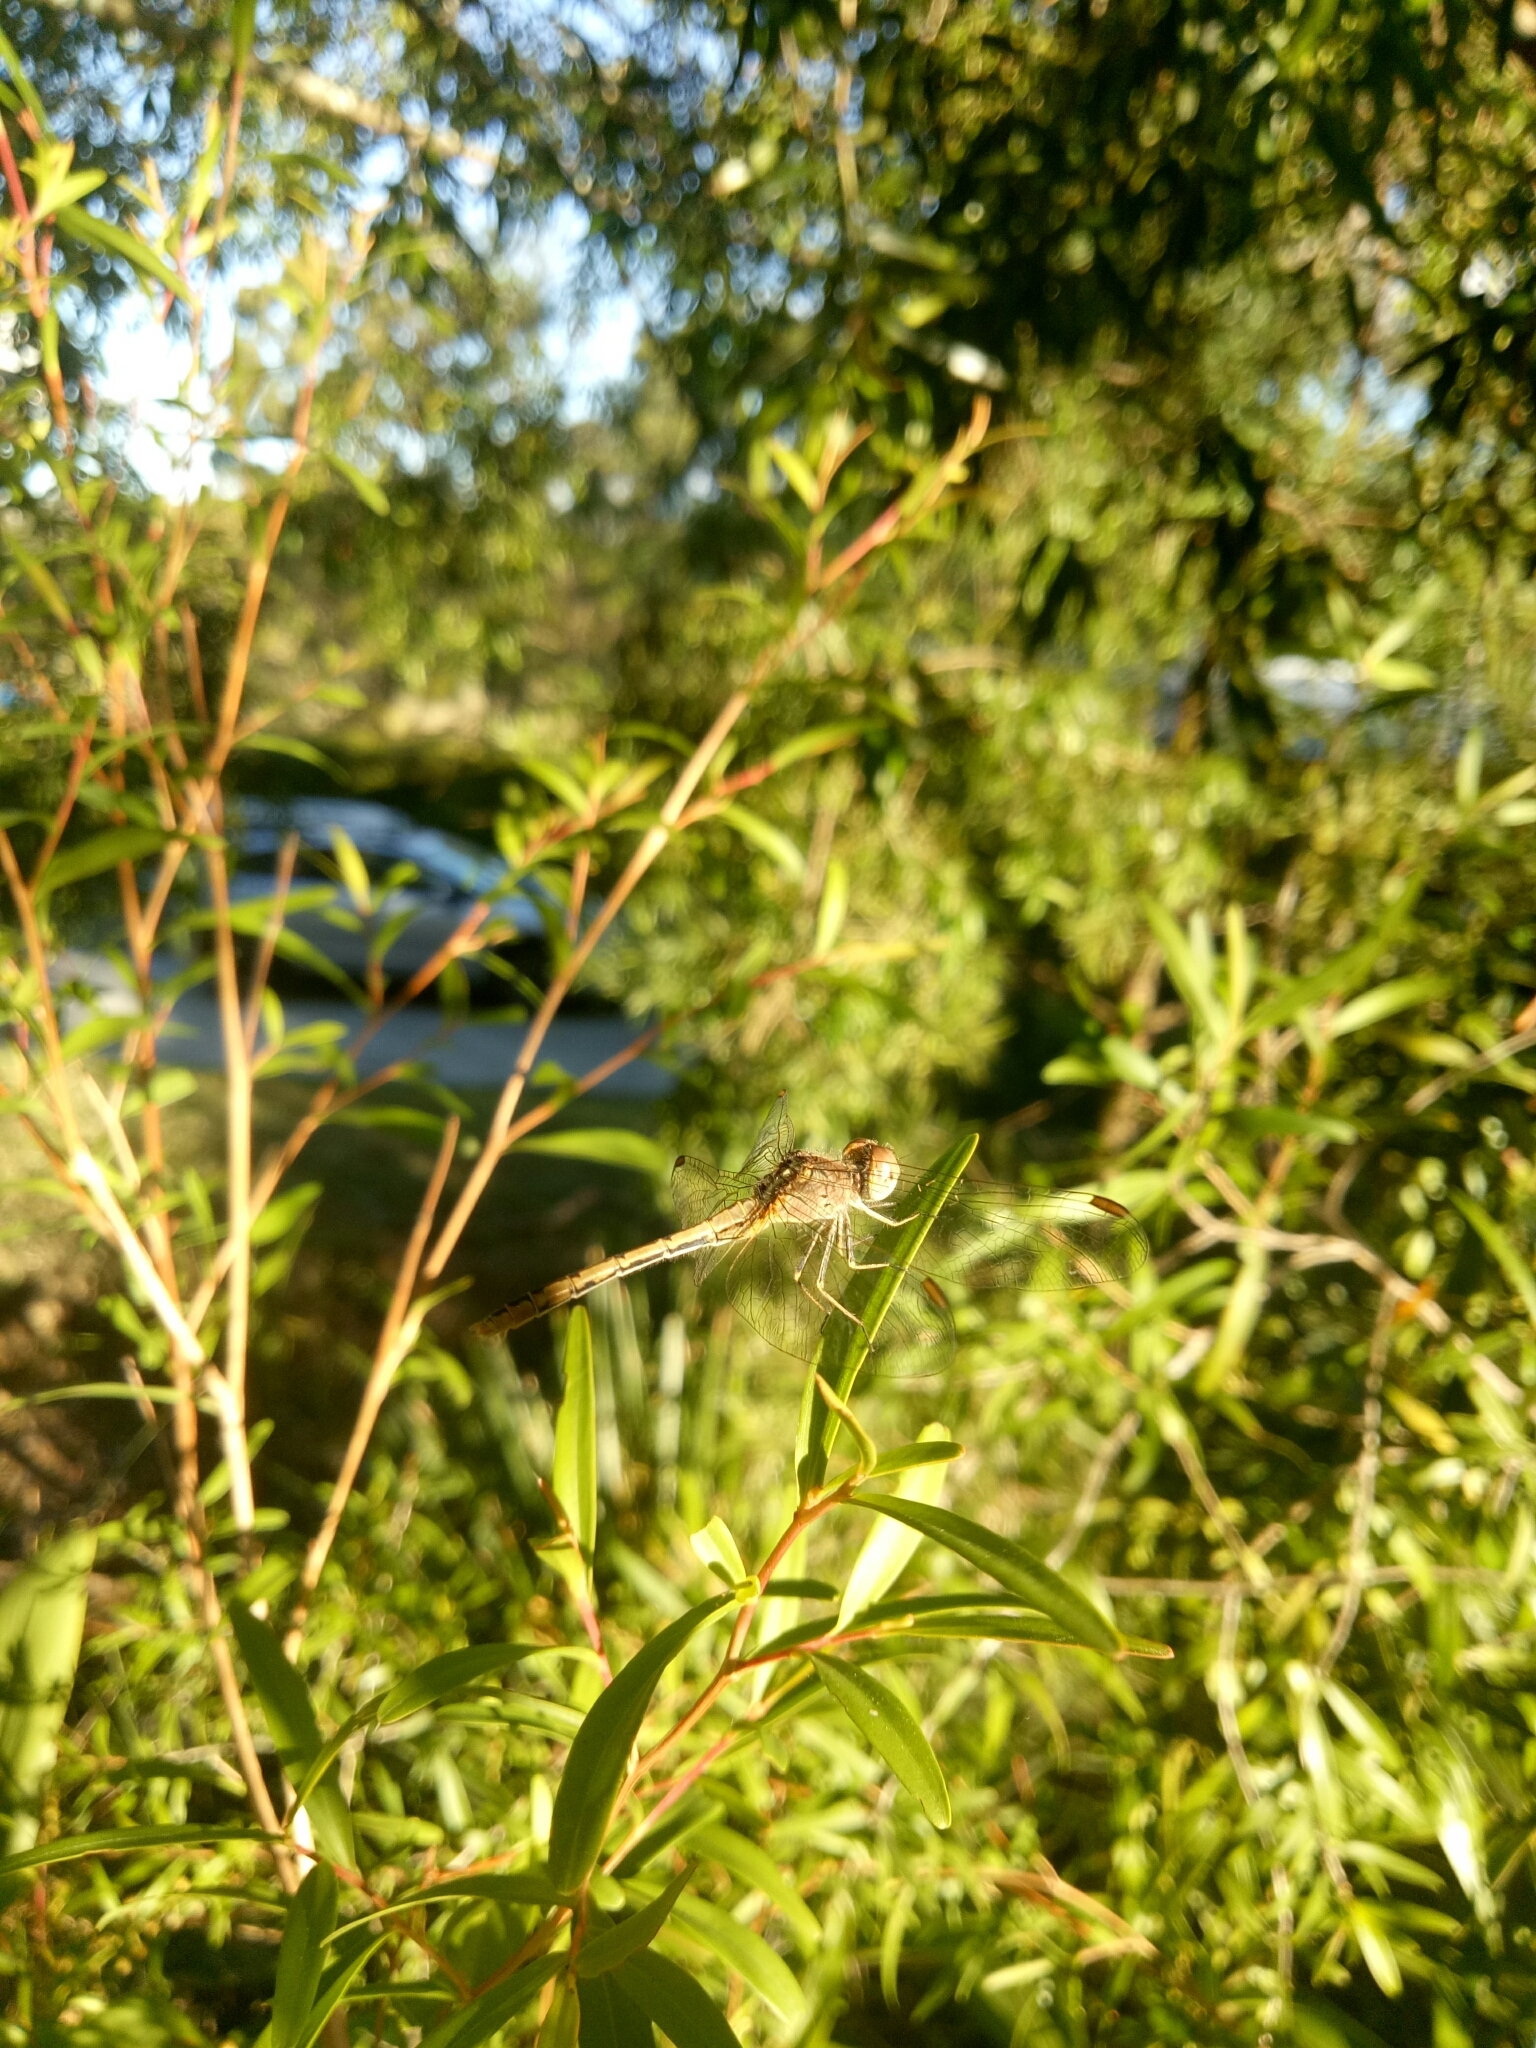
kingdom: Animalia
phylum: Arthropoda
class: Insecta
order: Odonata
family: Libellulidae
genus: Diplacodes
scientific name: Diplacodes bipunctata
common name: Red percher dragonfly
